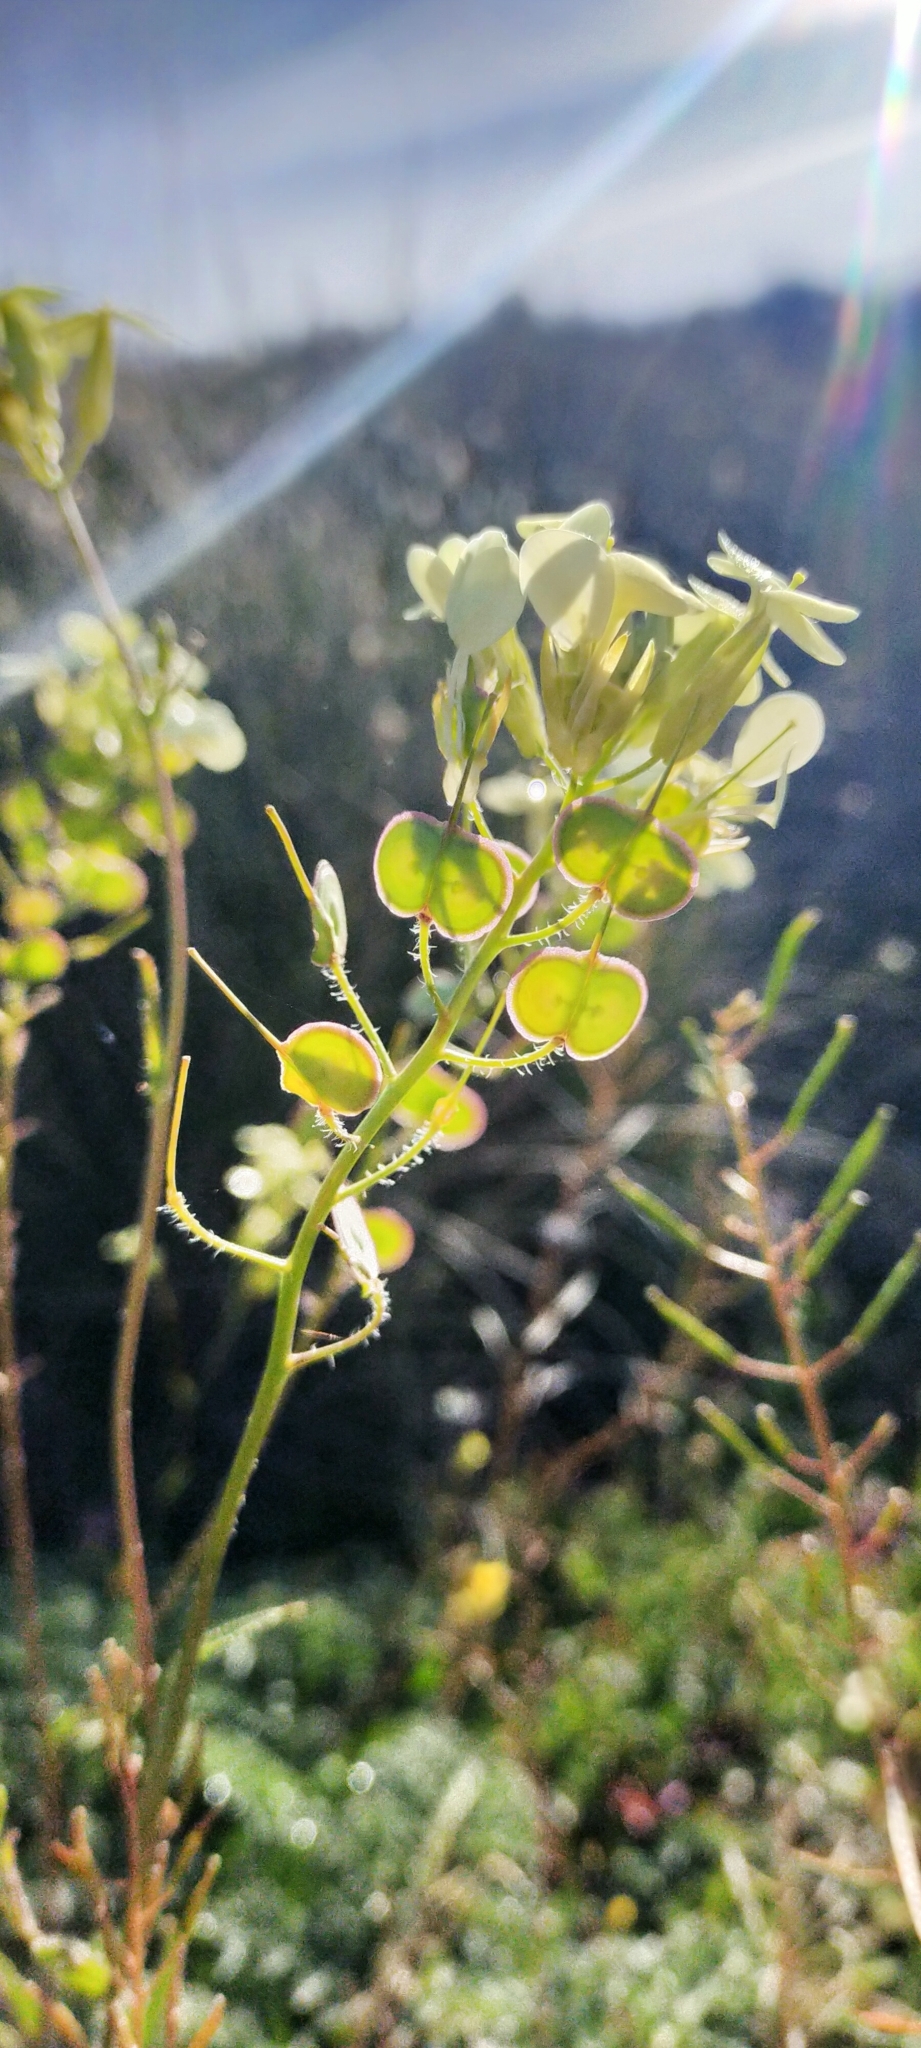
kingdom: Plantae
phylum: Tracheophyta
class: Magnoliopsida
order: Brassicales
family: Brassicaceae
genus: Biscutella
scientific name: Biscutella auriculata
